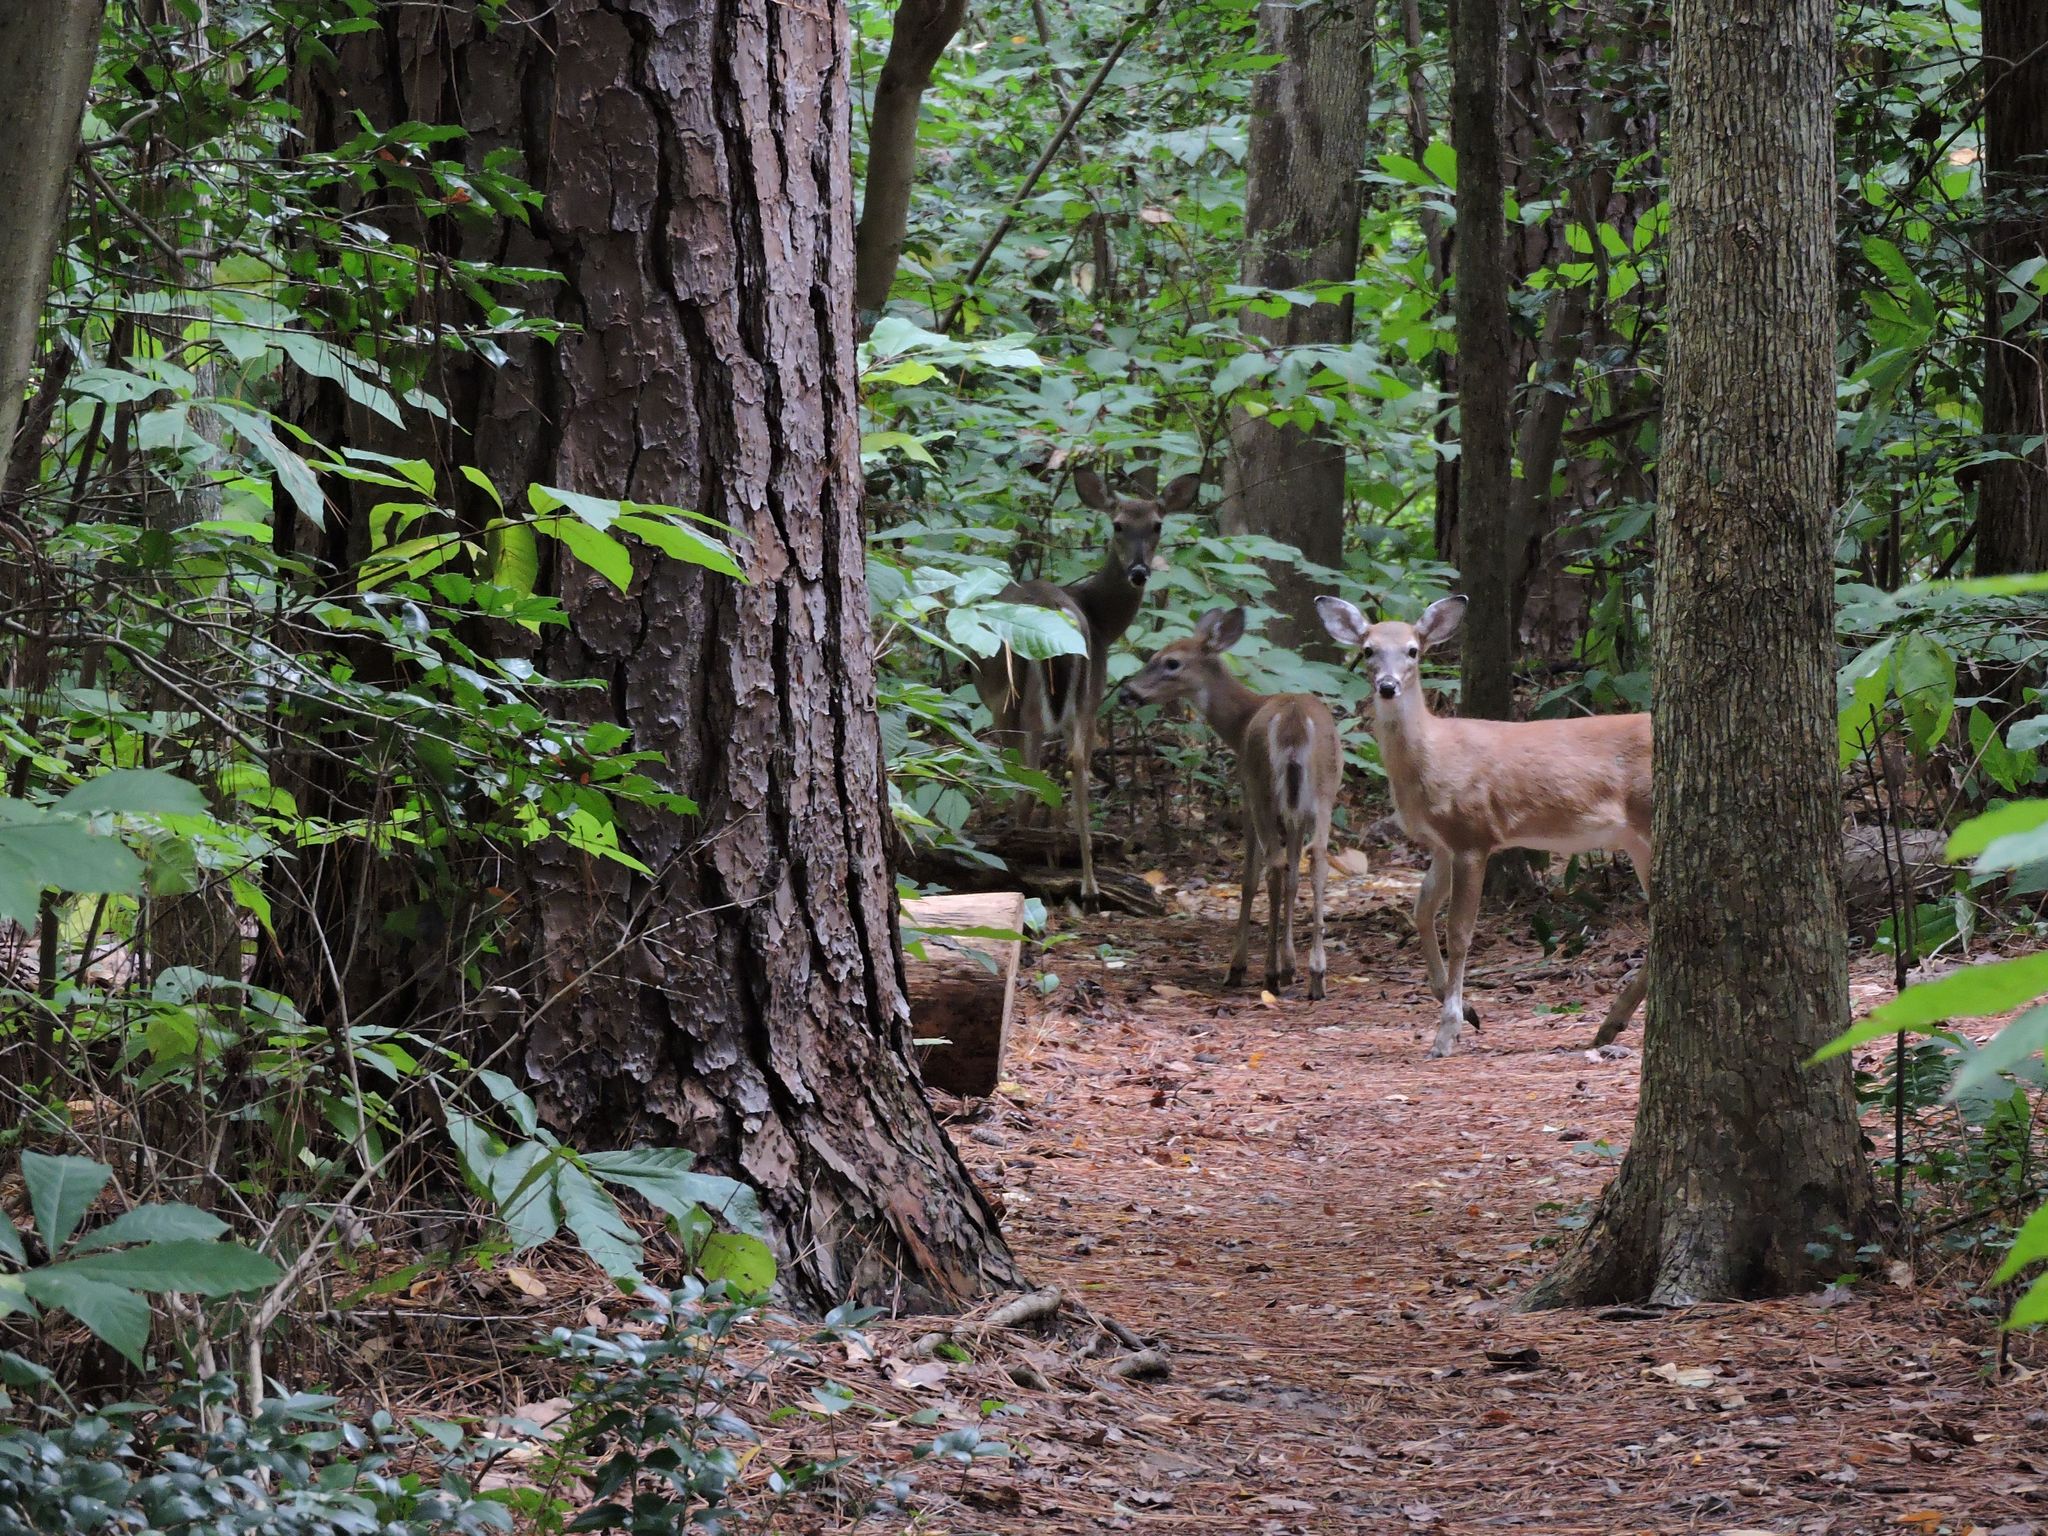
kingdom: Animalia
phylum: Chordata
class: Mammalia
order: Artiodactyla
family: Cervidae
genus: Odocoileus
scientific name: Odocoileus virginianus
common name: White-tailed deer
